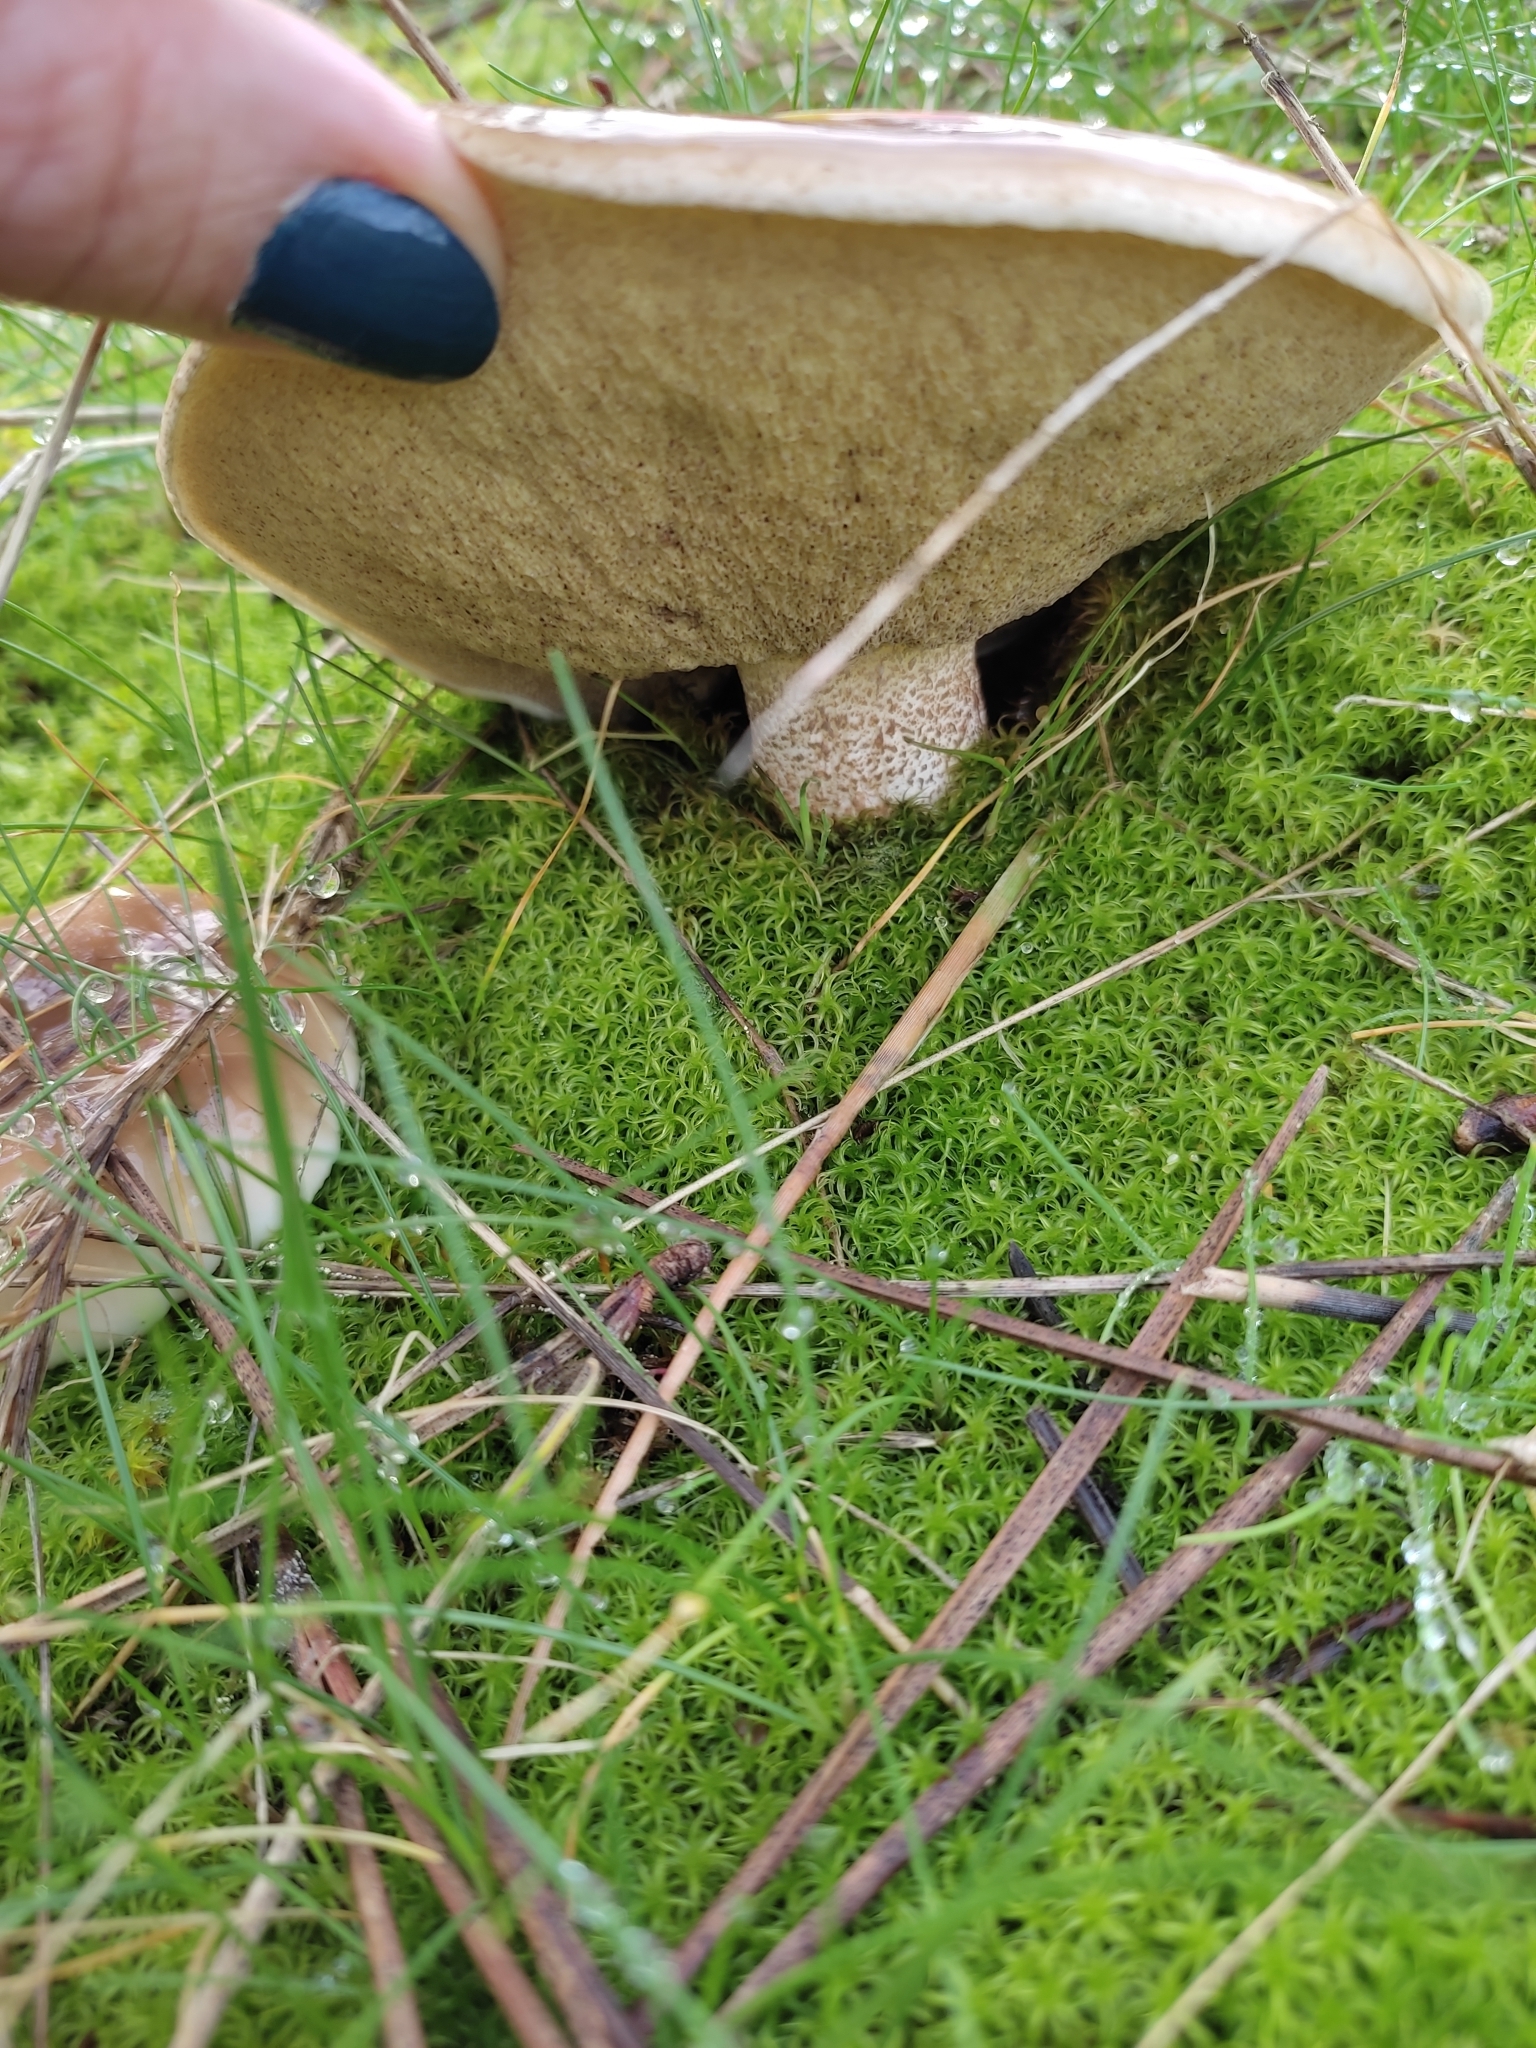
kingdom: Fungi
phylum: Basidiomycota
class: Agaricomycetes
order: Boletales
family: Suillaceae
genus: Suillus
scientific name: Suillus bellinii
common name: Champagne bolete
